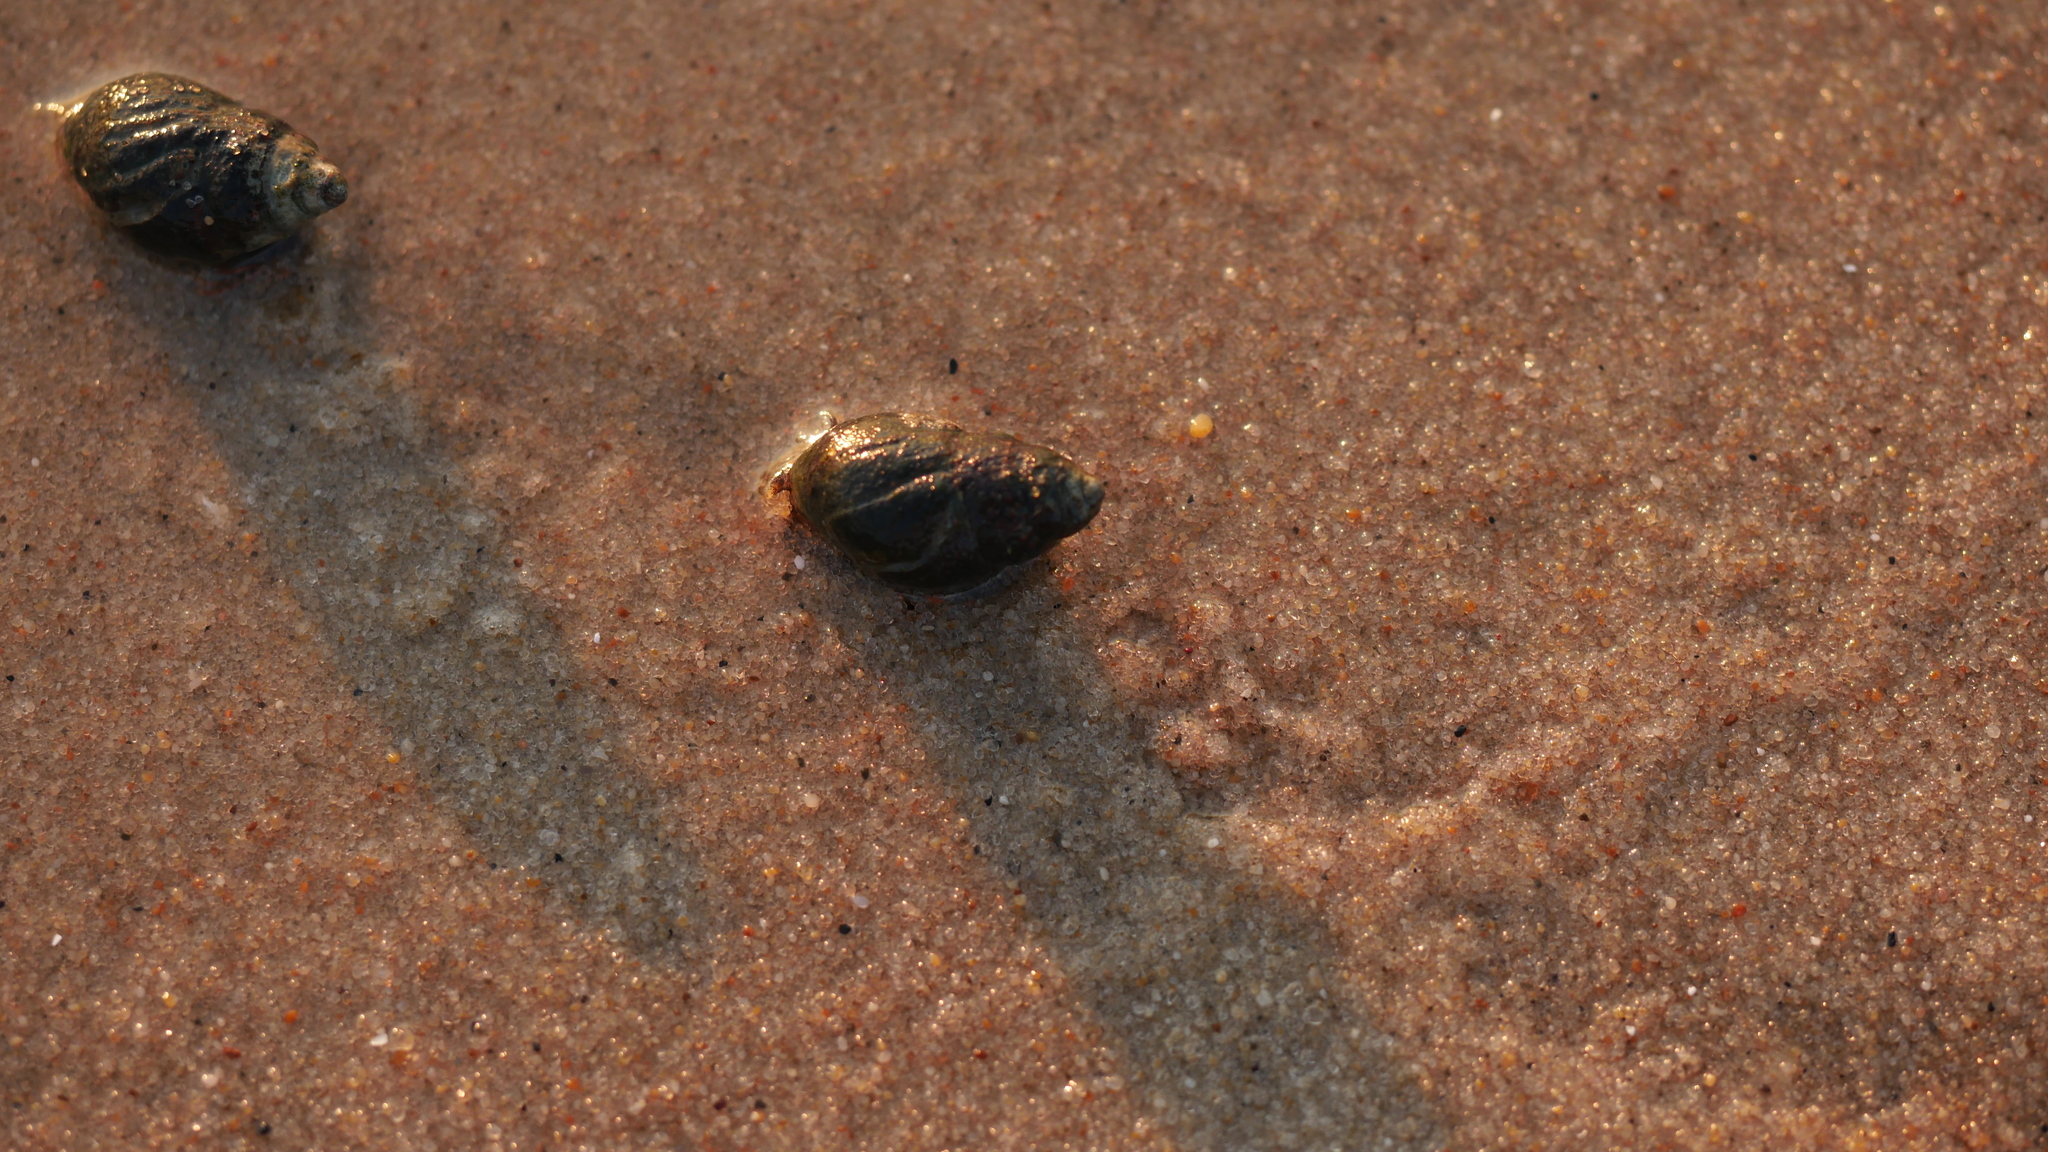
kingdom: Animalia
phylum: Mollusca
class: Gastropoda
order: Neogastropoda
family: Nassariidae
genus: Ilyanassa
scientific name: Ilyanassa obsoleta
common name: Eastern mudsnail
